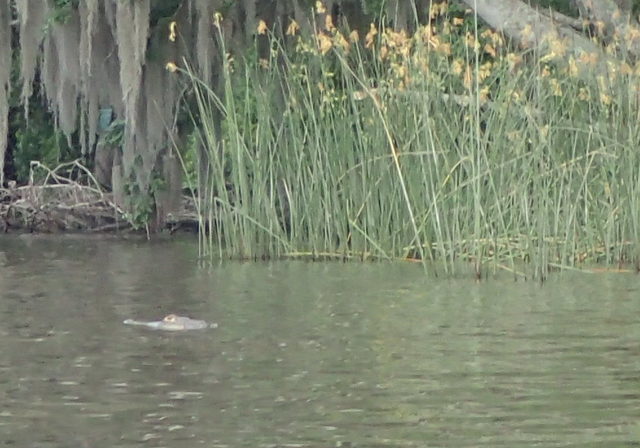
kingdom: Animalia
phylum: Chordata
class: Crocodylia
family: Alligatoridae
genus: Alligator
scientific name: Alligator mississippiensis
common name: American alligator
